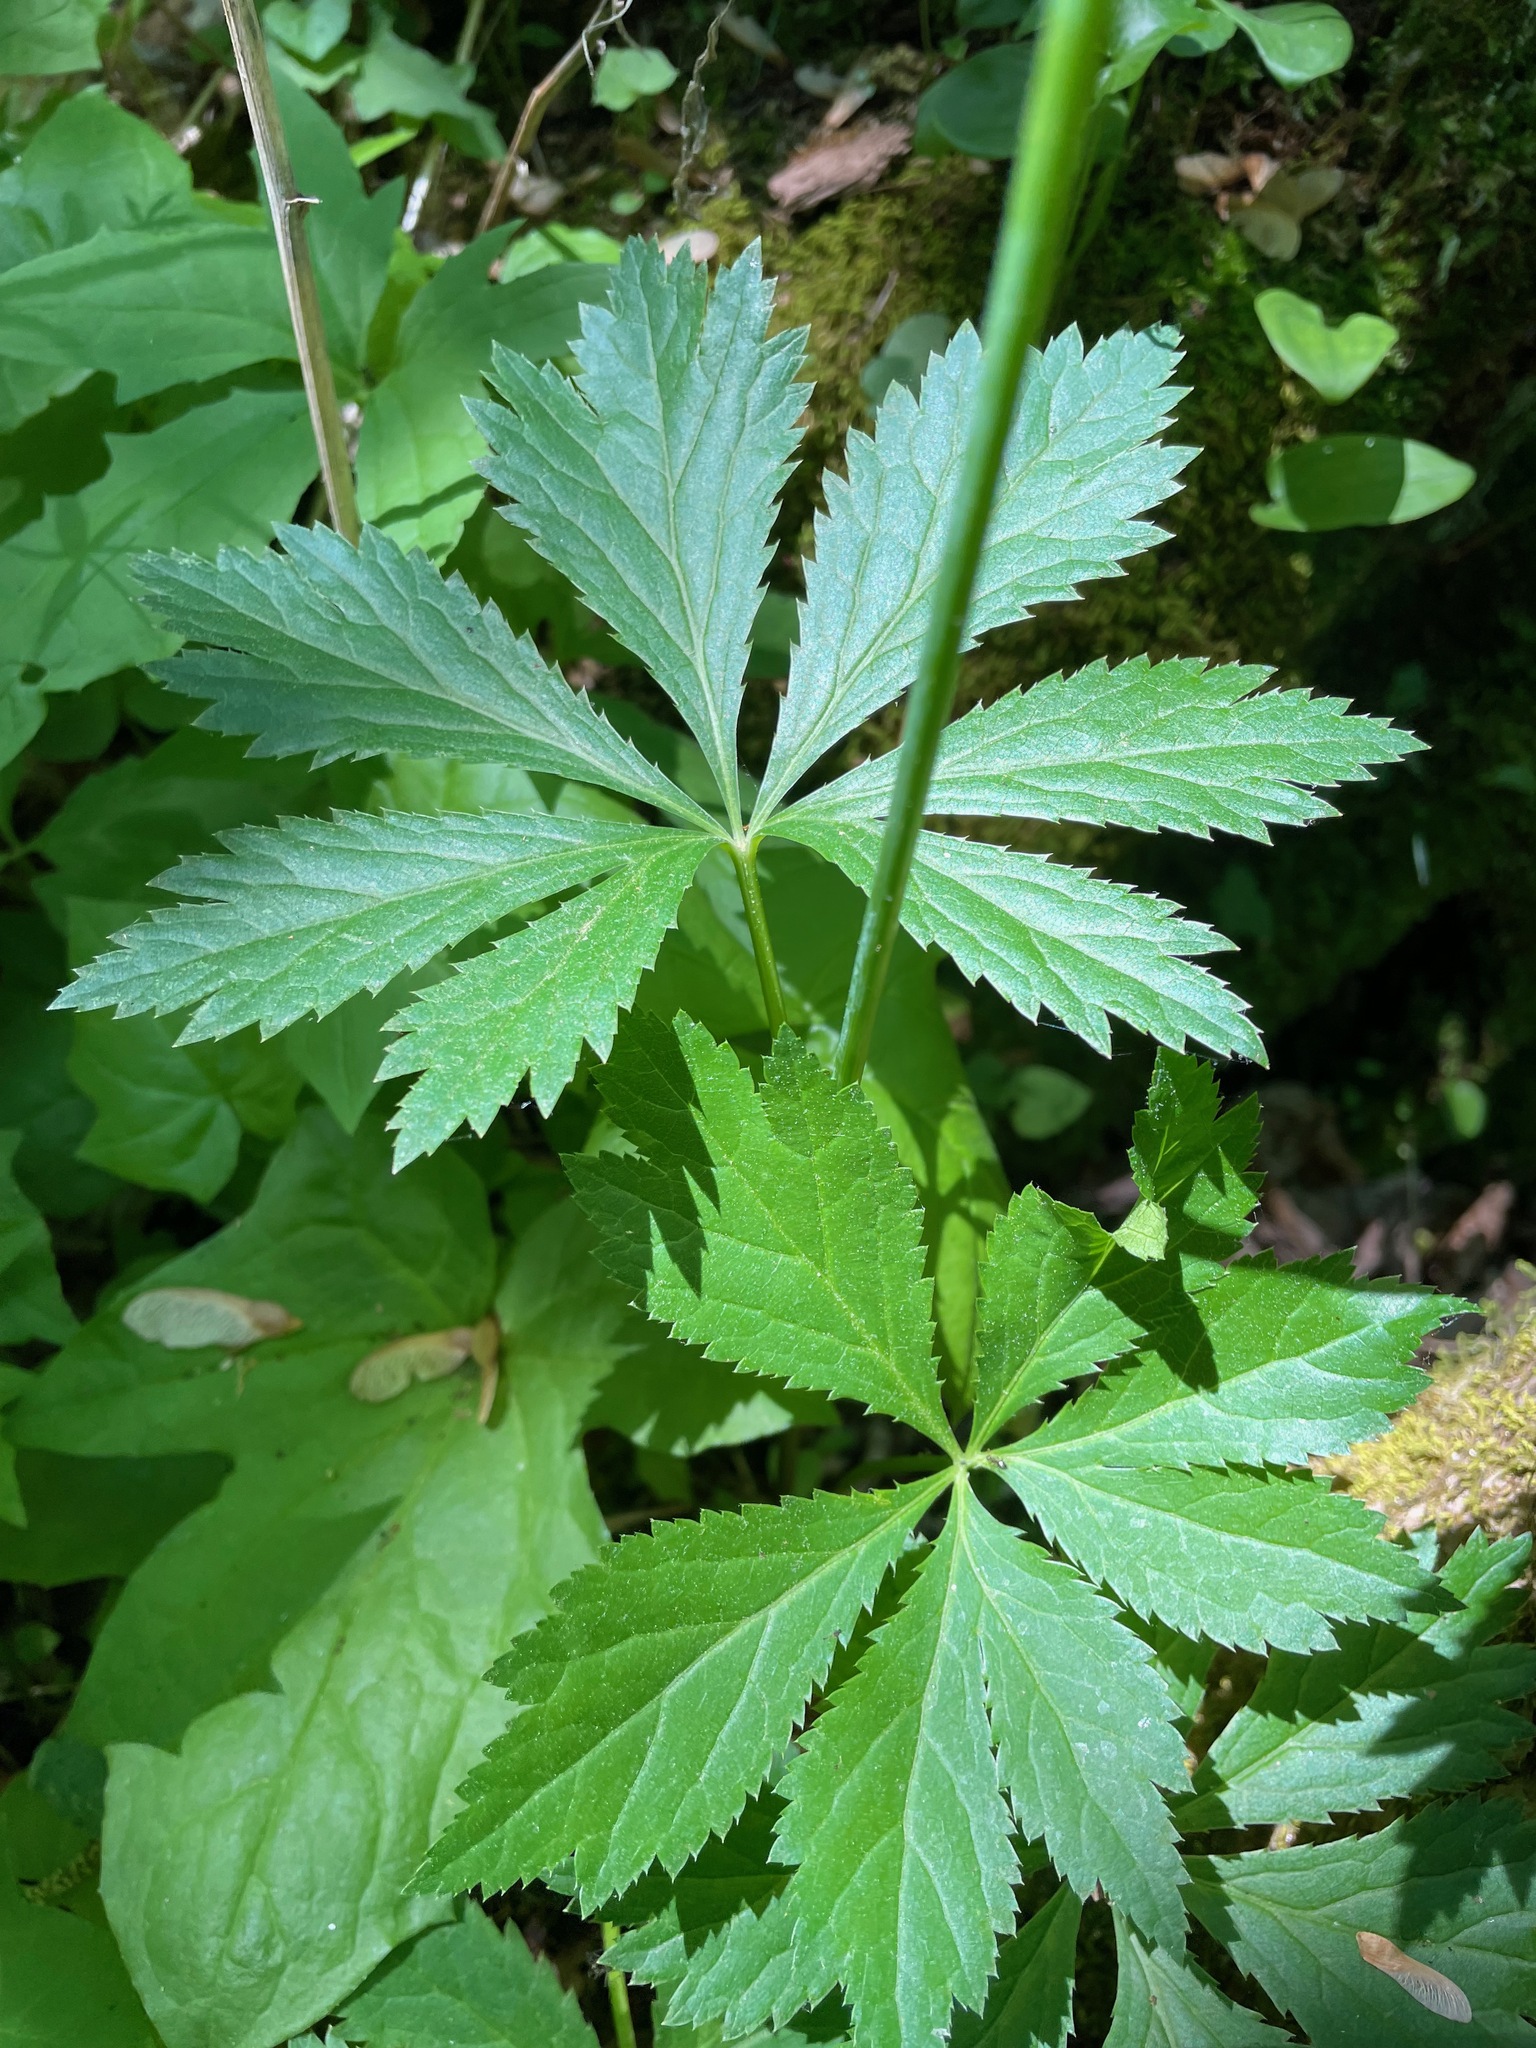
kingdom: Plantae
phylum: Tracheophyta
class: Magnoliopsida
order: Apiales
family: Apiaceae
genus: Sanicula
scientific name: Sanicula marilandica
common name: Black snakeroot
